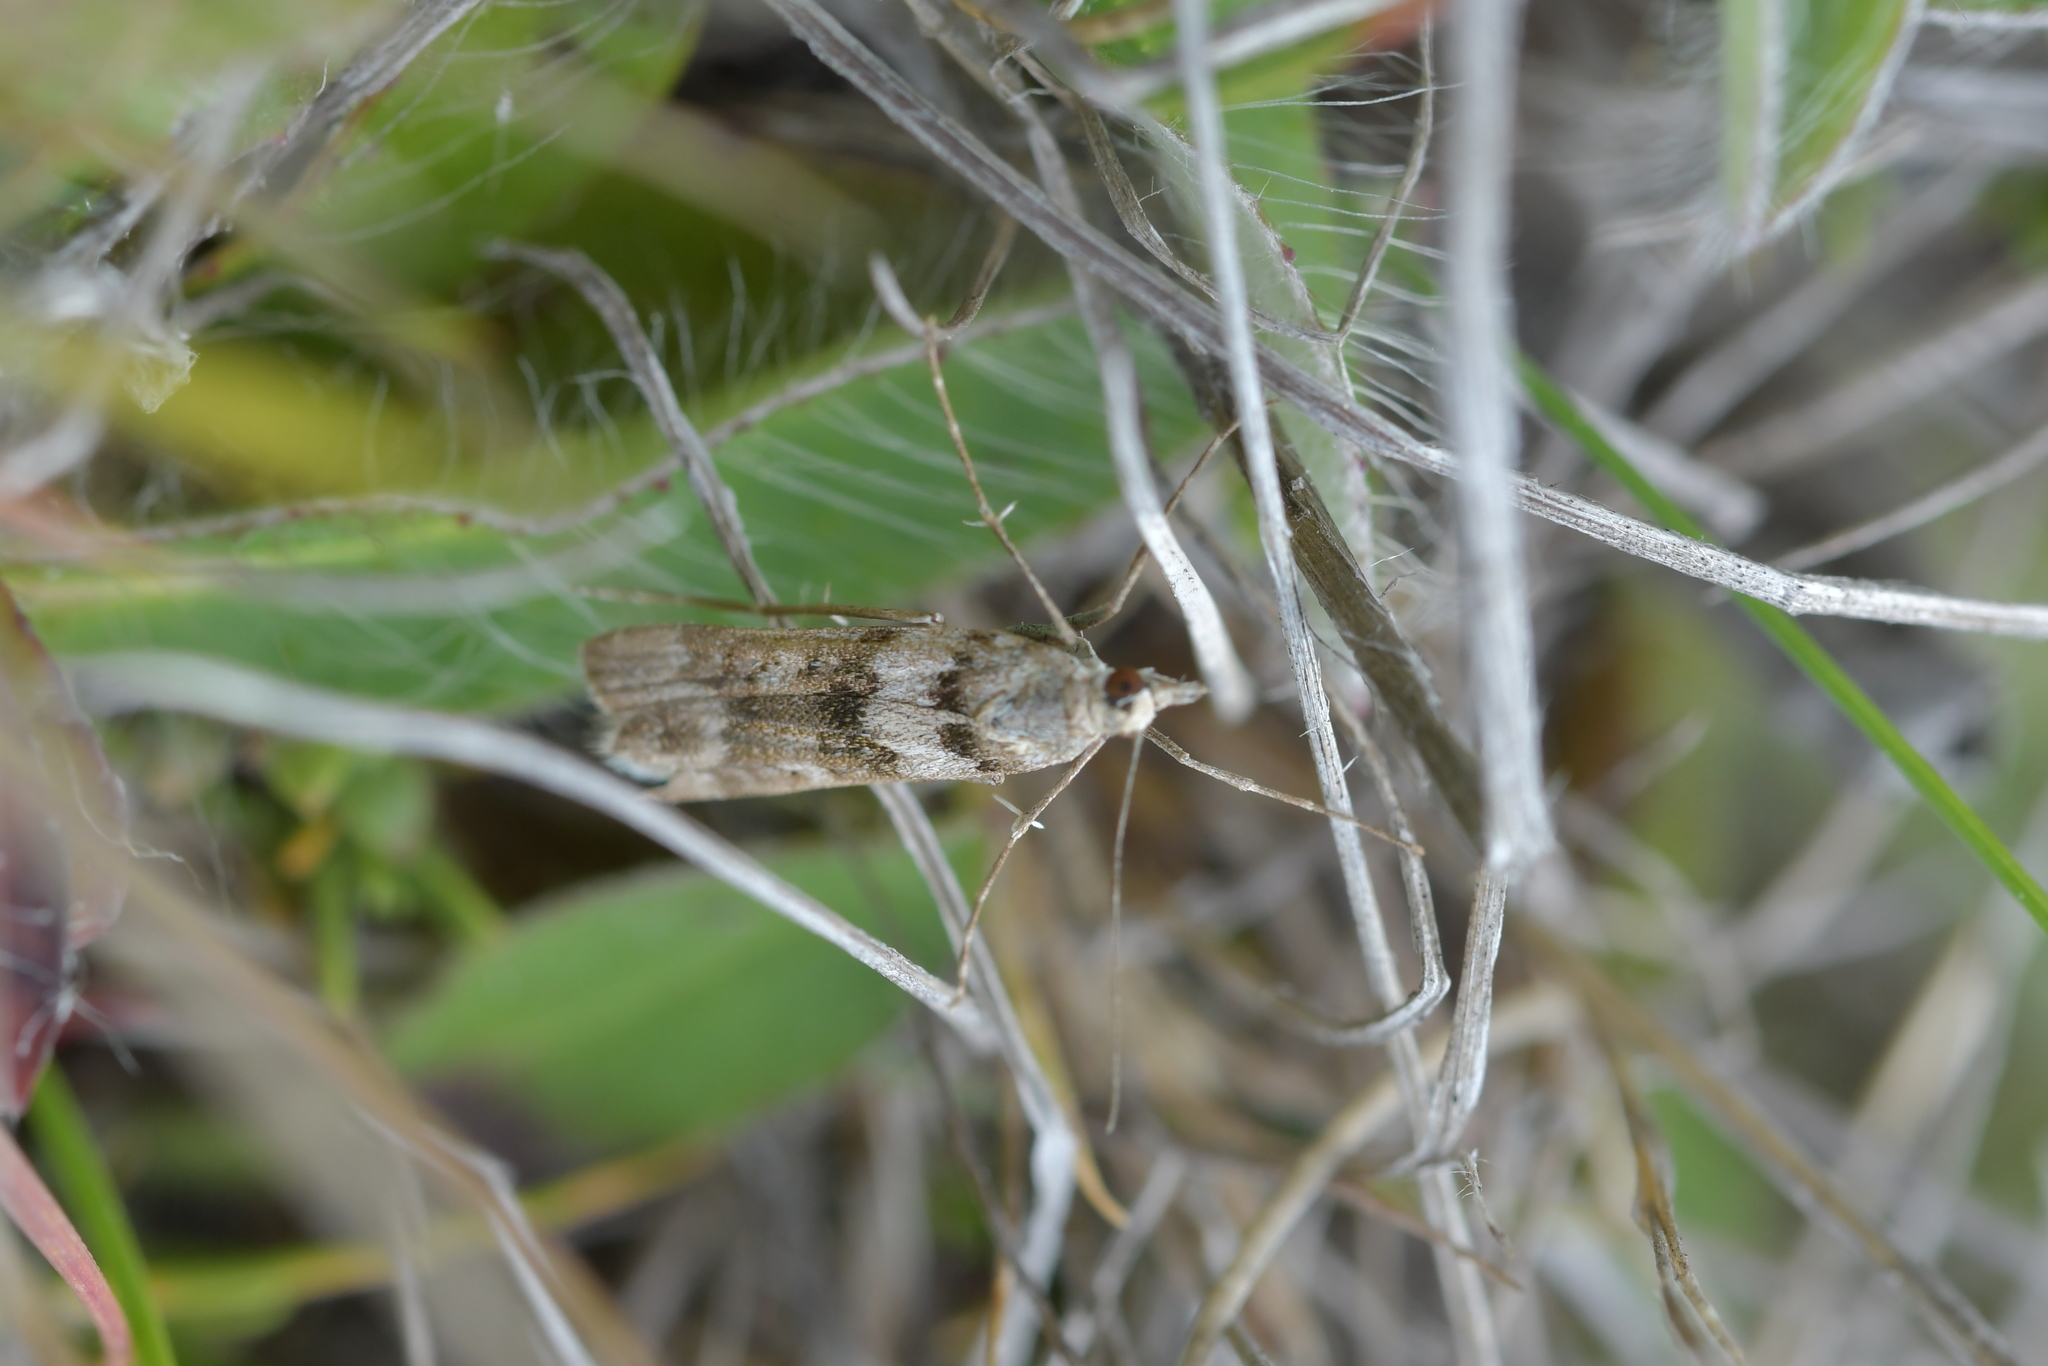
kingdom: Animalia
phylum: Arthropoda
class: Insecta
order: Lepidoptera
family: Crambidae
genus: Eudonia
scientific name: Eudonia gyrotoma
